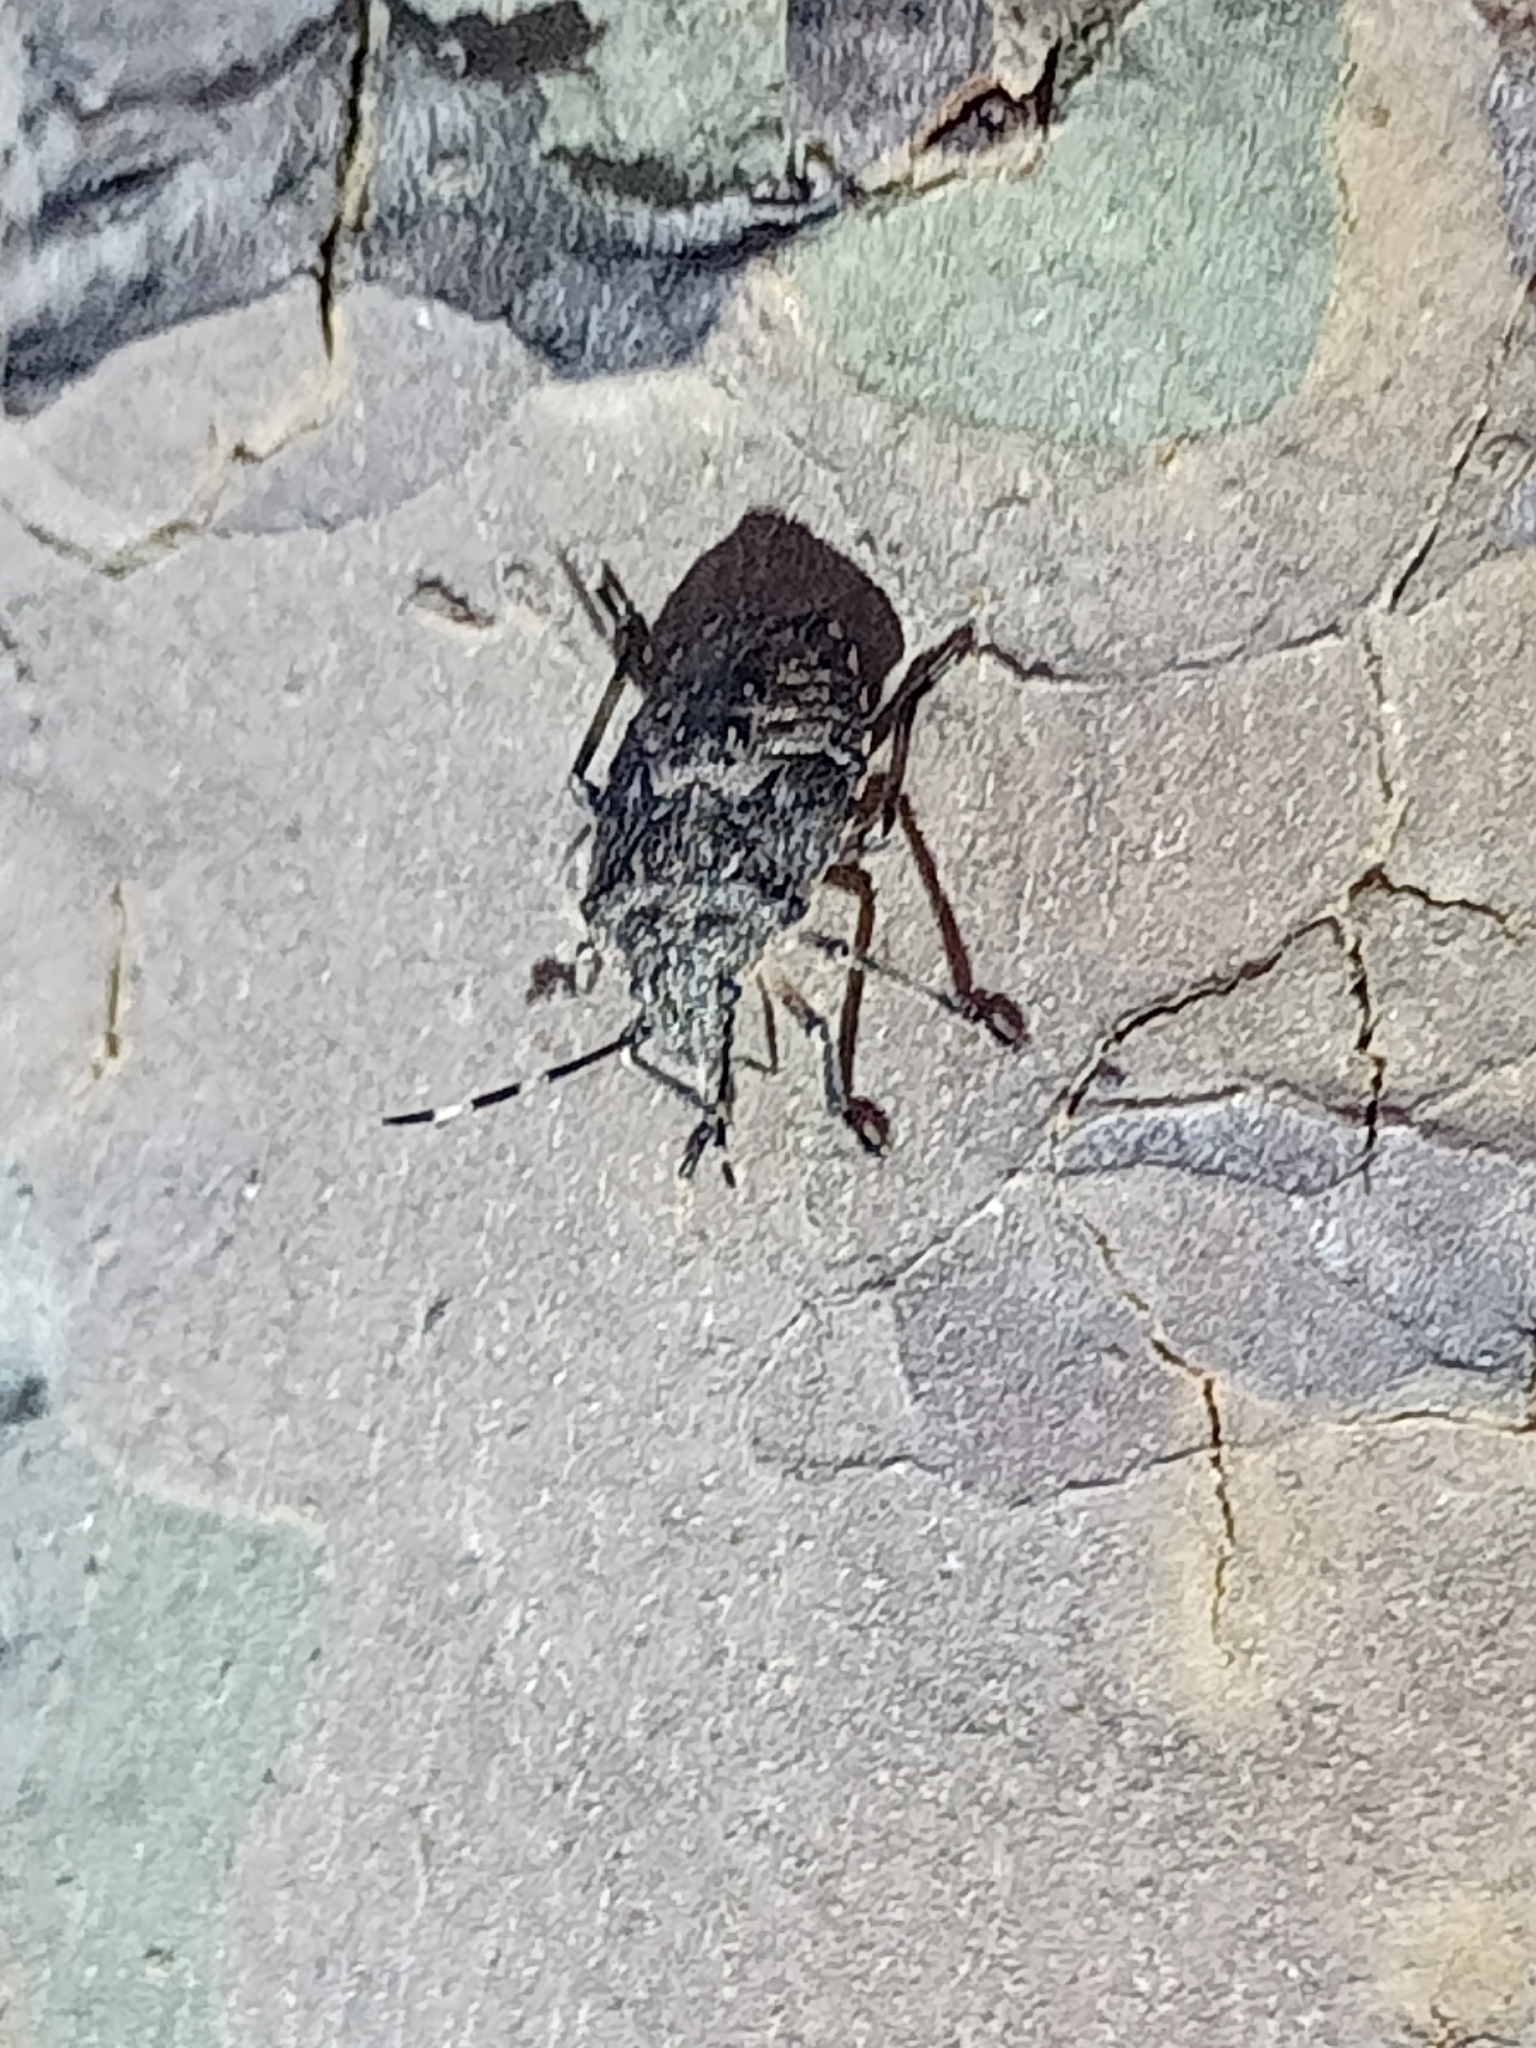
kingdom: Animalia
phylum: Arthropoda
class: Insecta
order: Hemiptera
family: Pentatomidae
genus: Rhaphigaster
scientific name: Rhaphigaster nebulosa
